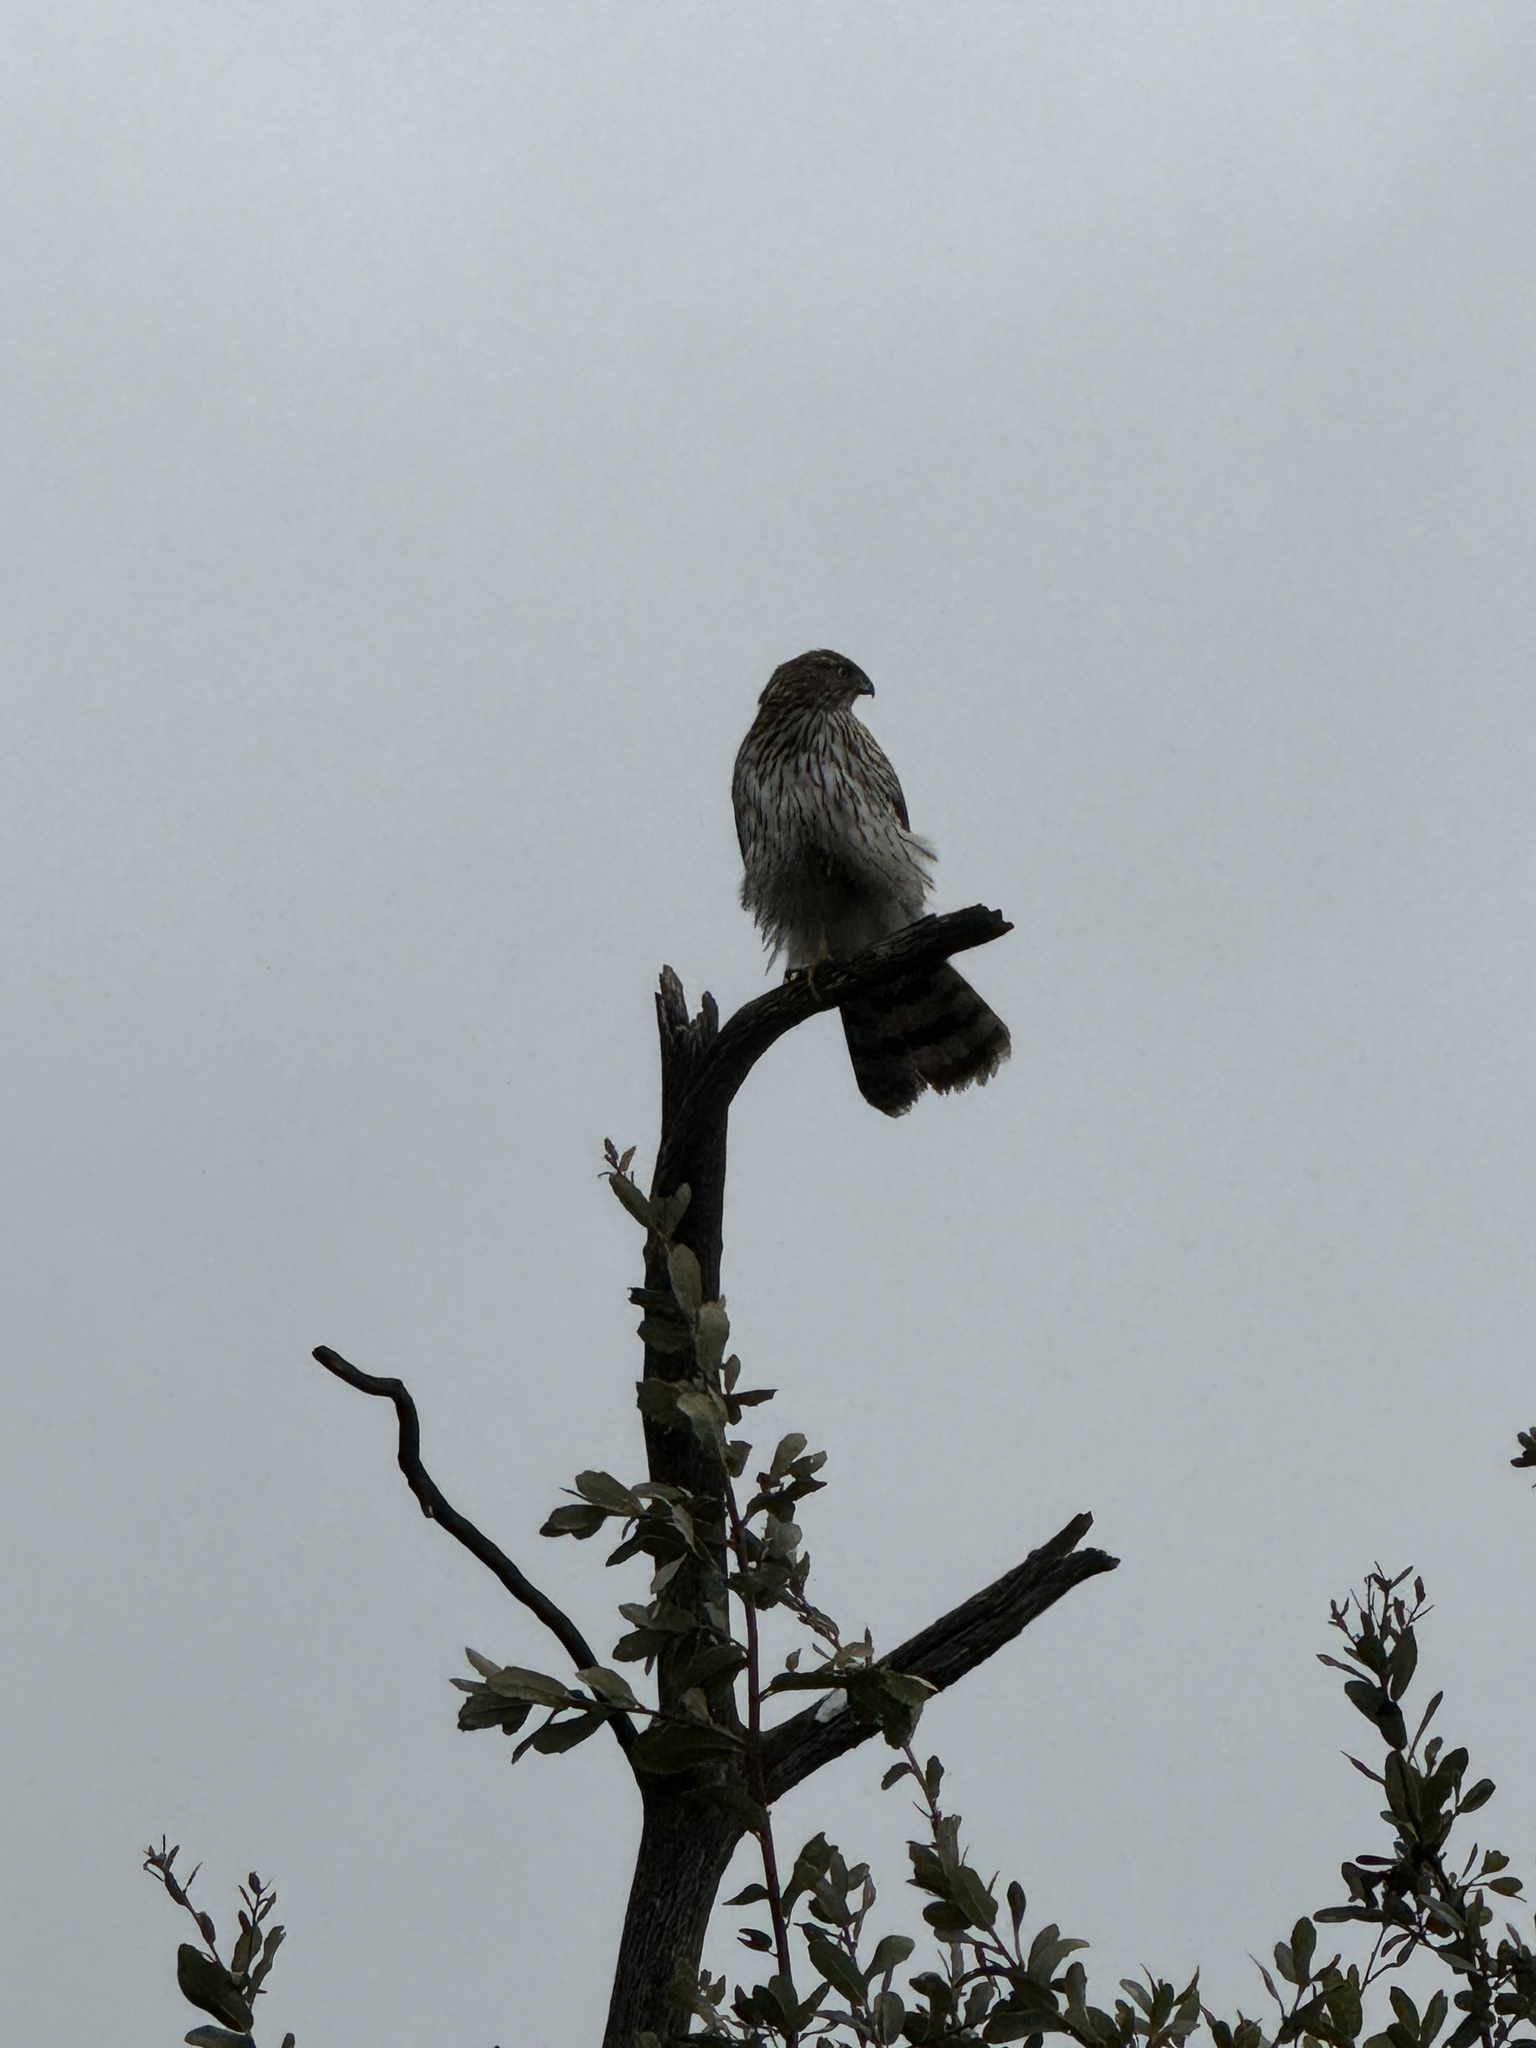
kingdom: Animalia
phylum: Chordata
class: Aves
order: Accipitriformes
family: Accipitridae
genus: Accipiter
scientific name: Accipiter cooperii
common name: Cooper's hawk
